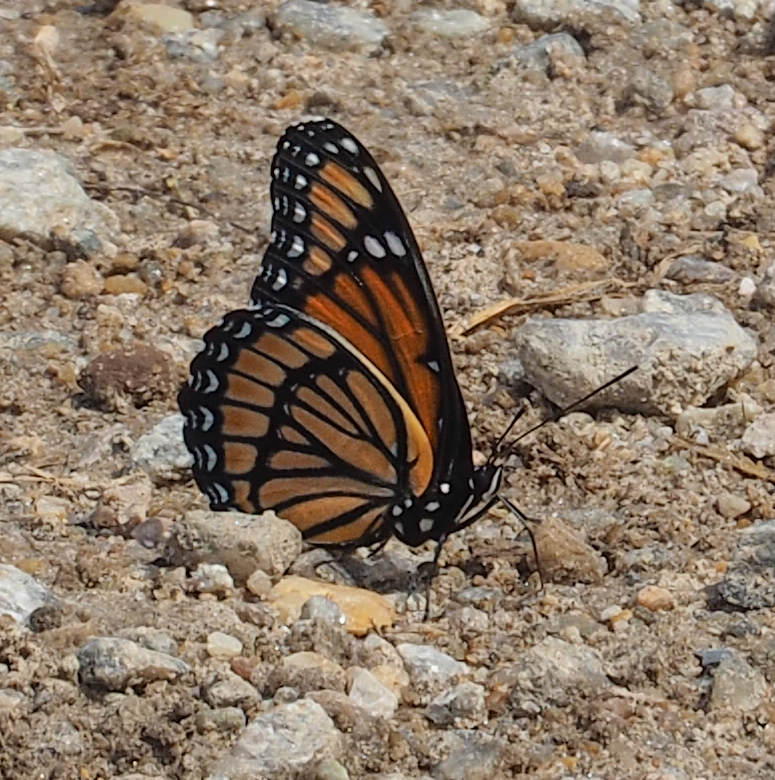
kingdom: Animalia
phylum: Arthropoda
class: Insecta
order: Lepidoptera
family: Nymphalidae
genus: Limenitis
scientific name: Limenitis archippus
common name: Viceroy
